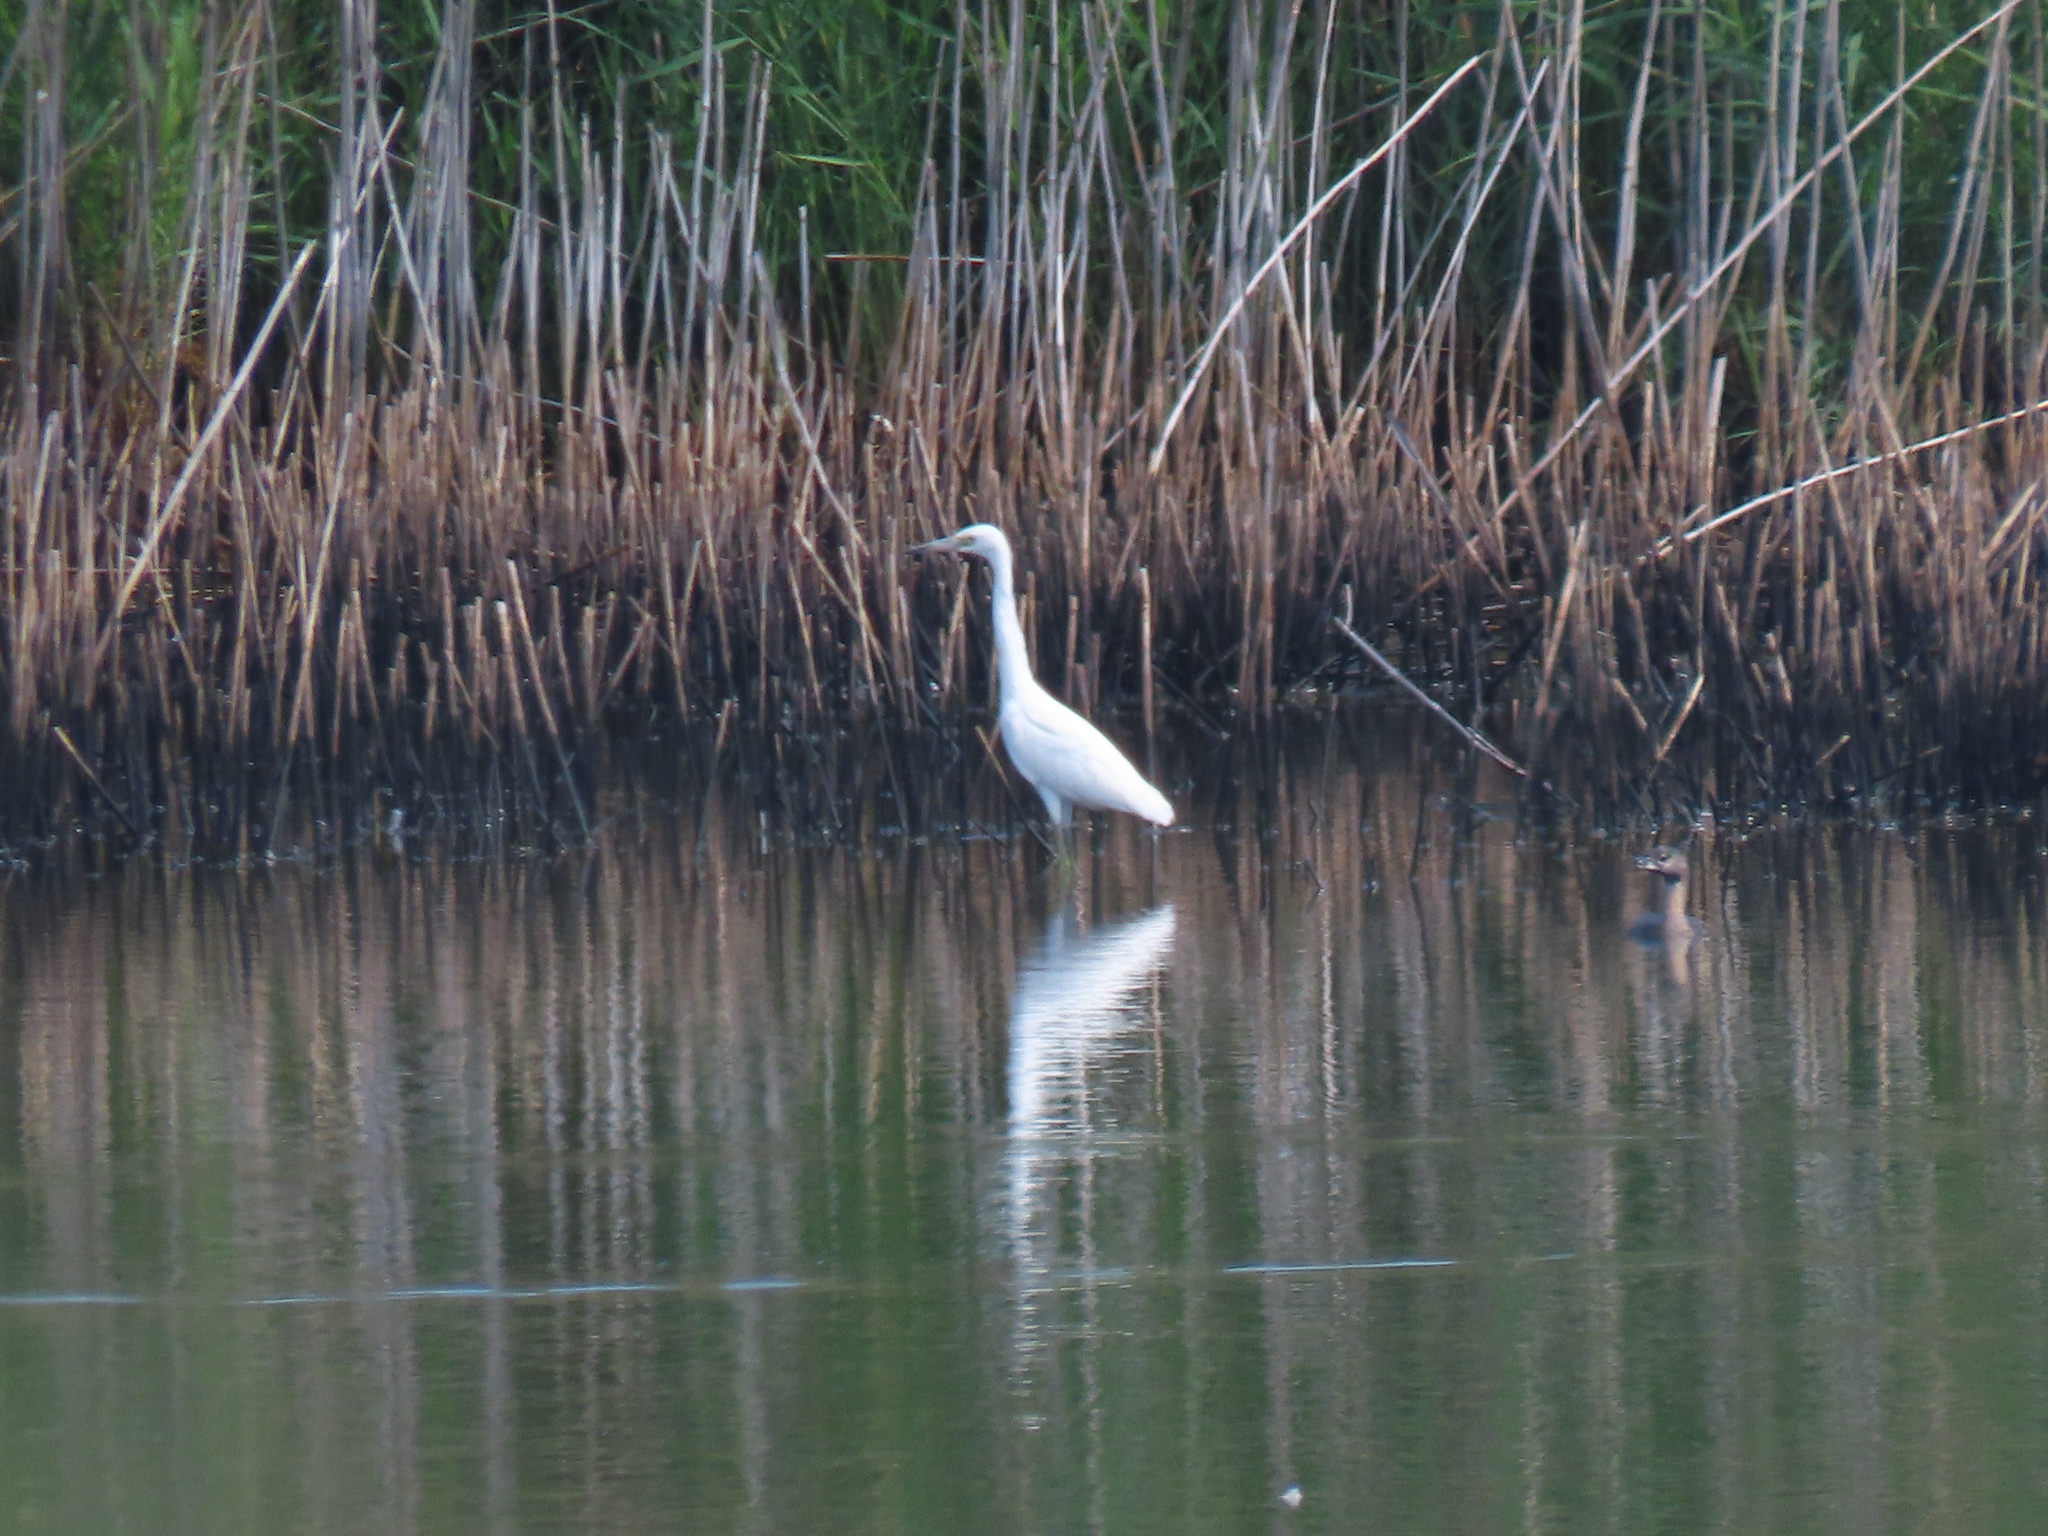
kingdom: Animalia
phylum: Chordata
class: Aves
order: Pelecaniformes
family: Ardeidae
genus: Egretta
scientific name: Egretta caerulea
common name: Little blue heron
